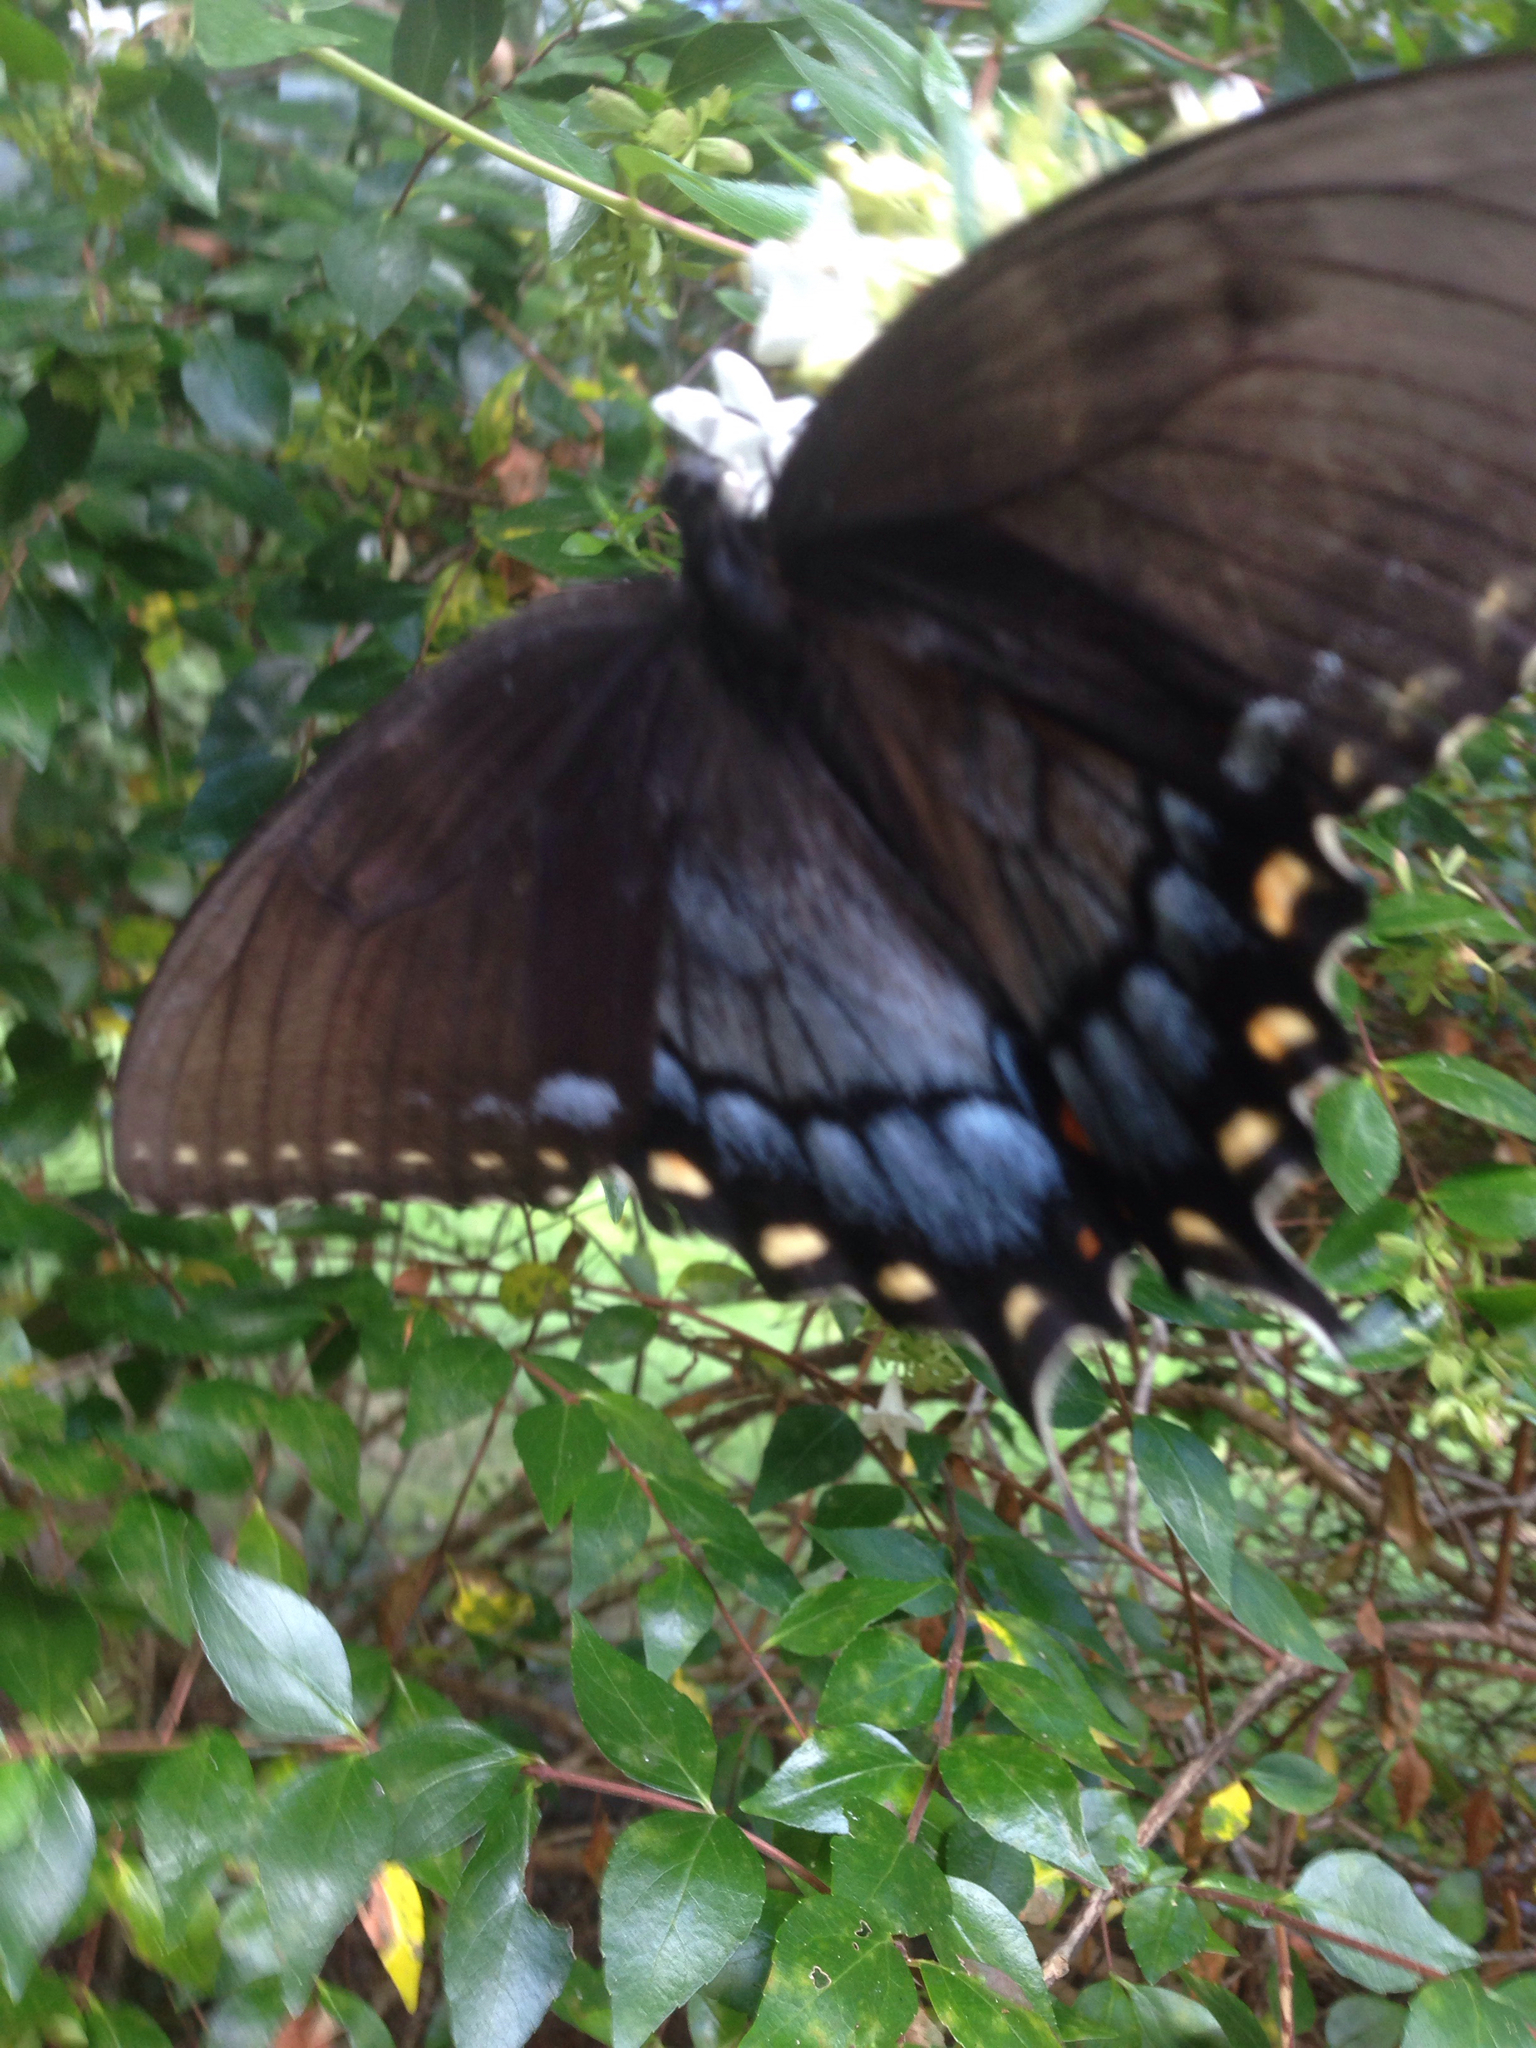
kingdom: Animalia
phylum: Arthropoda
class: Insecta
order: Lepidoptera
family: Papilionidae
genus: Papilio
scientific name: Papilio glaucus
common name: Tiger swallowtail
